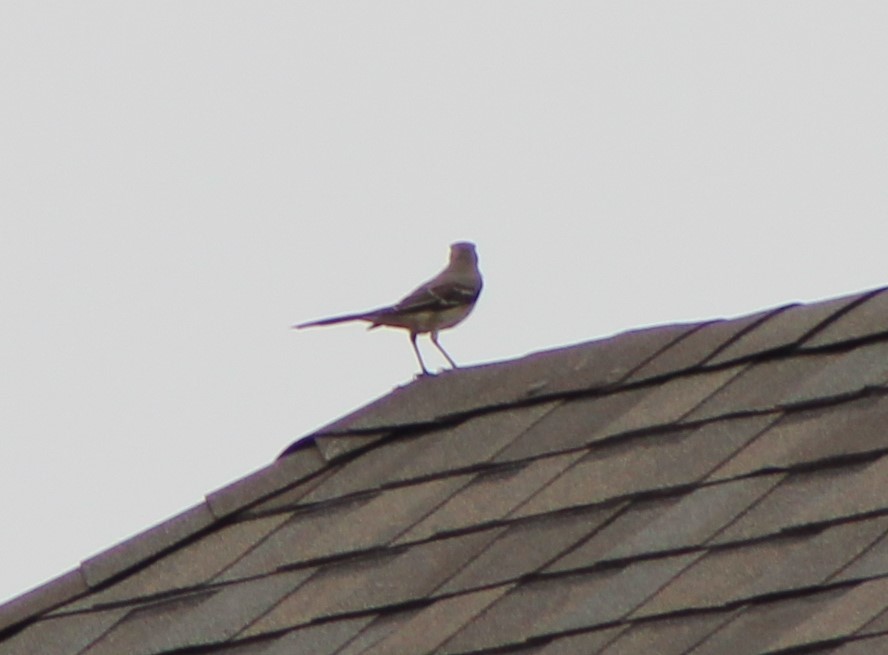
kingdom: Animalia
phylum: Chordata
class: Aves
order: Passeriformes
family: Mimidae
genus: Mimus
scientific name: Mimus polyglottos
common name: Northern mockingbird
